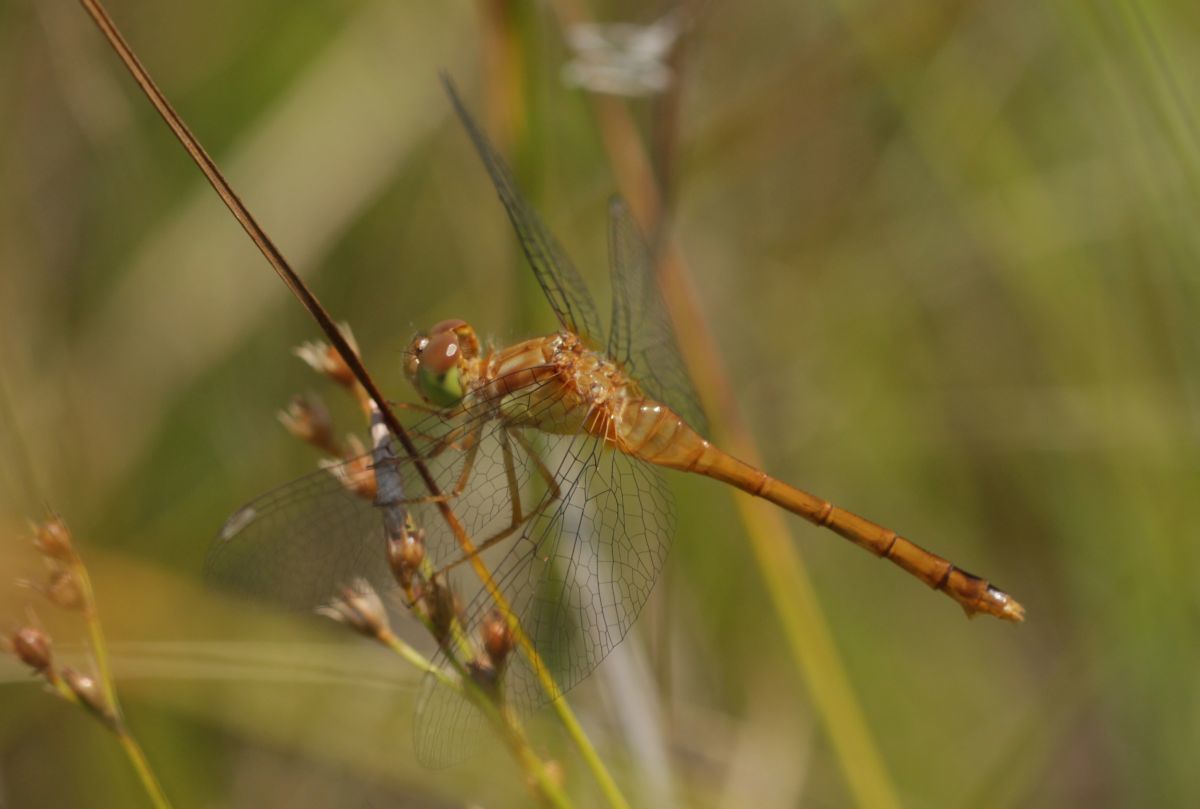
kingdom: Animalia
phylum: Arthropoda
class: Insecta
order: Odonata
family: Libellulidae
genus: Sympetrum
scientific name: Sympetrum vicinum
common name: Autumn meadowhawk
